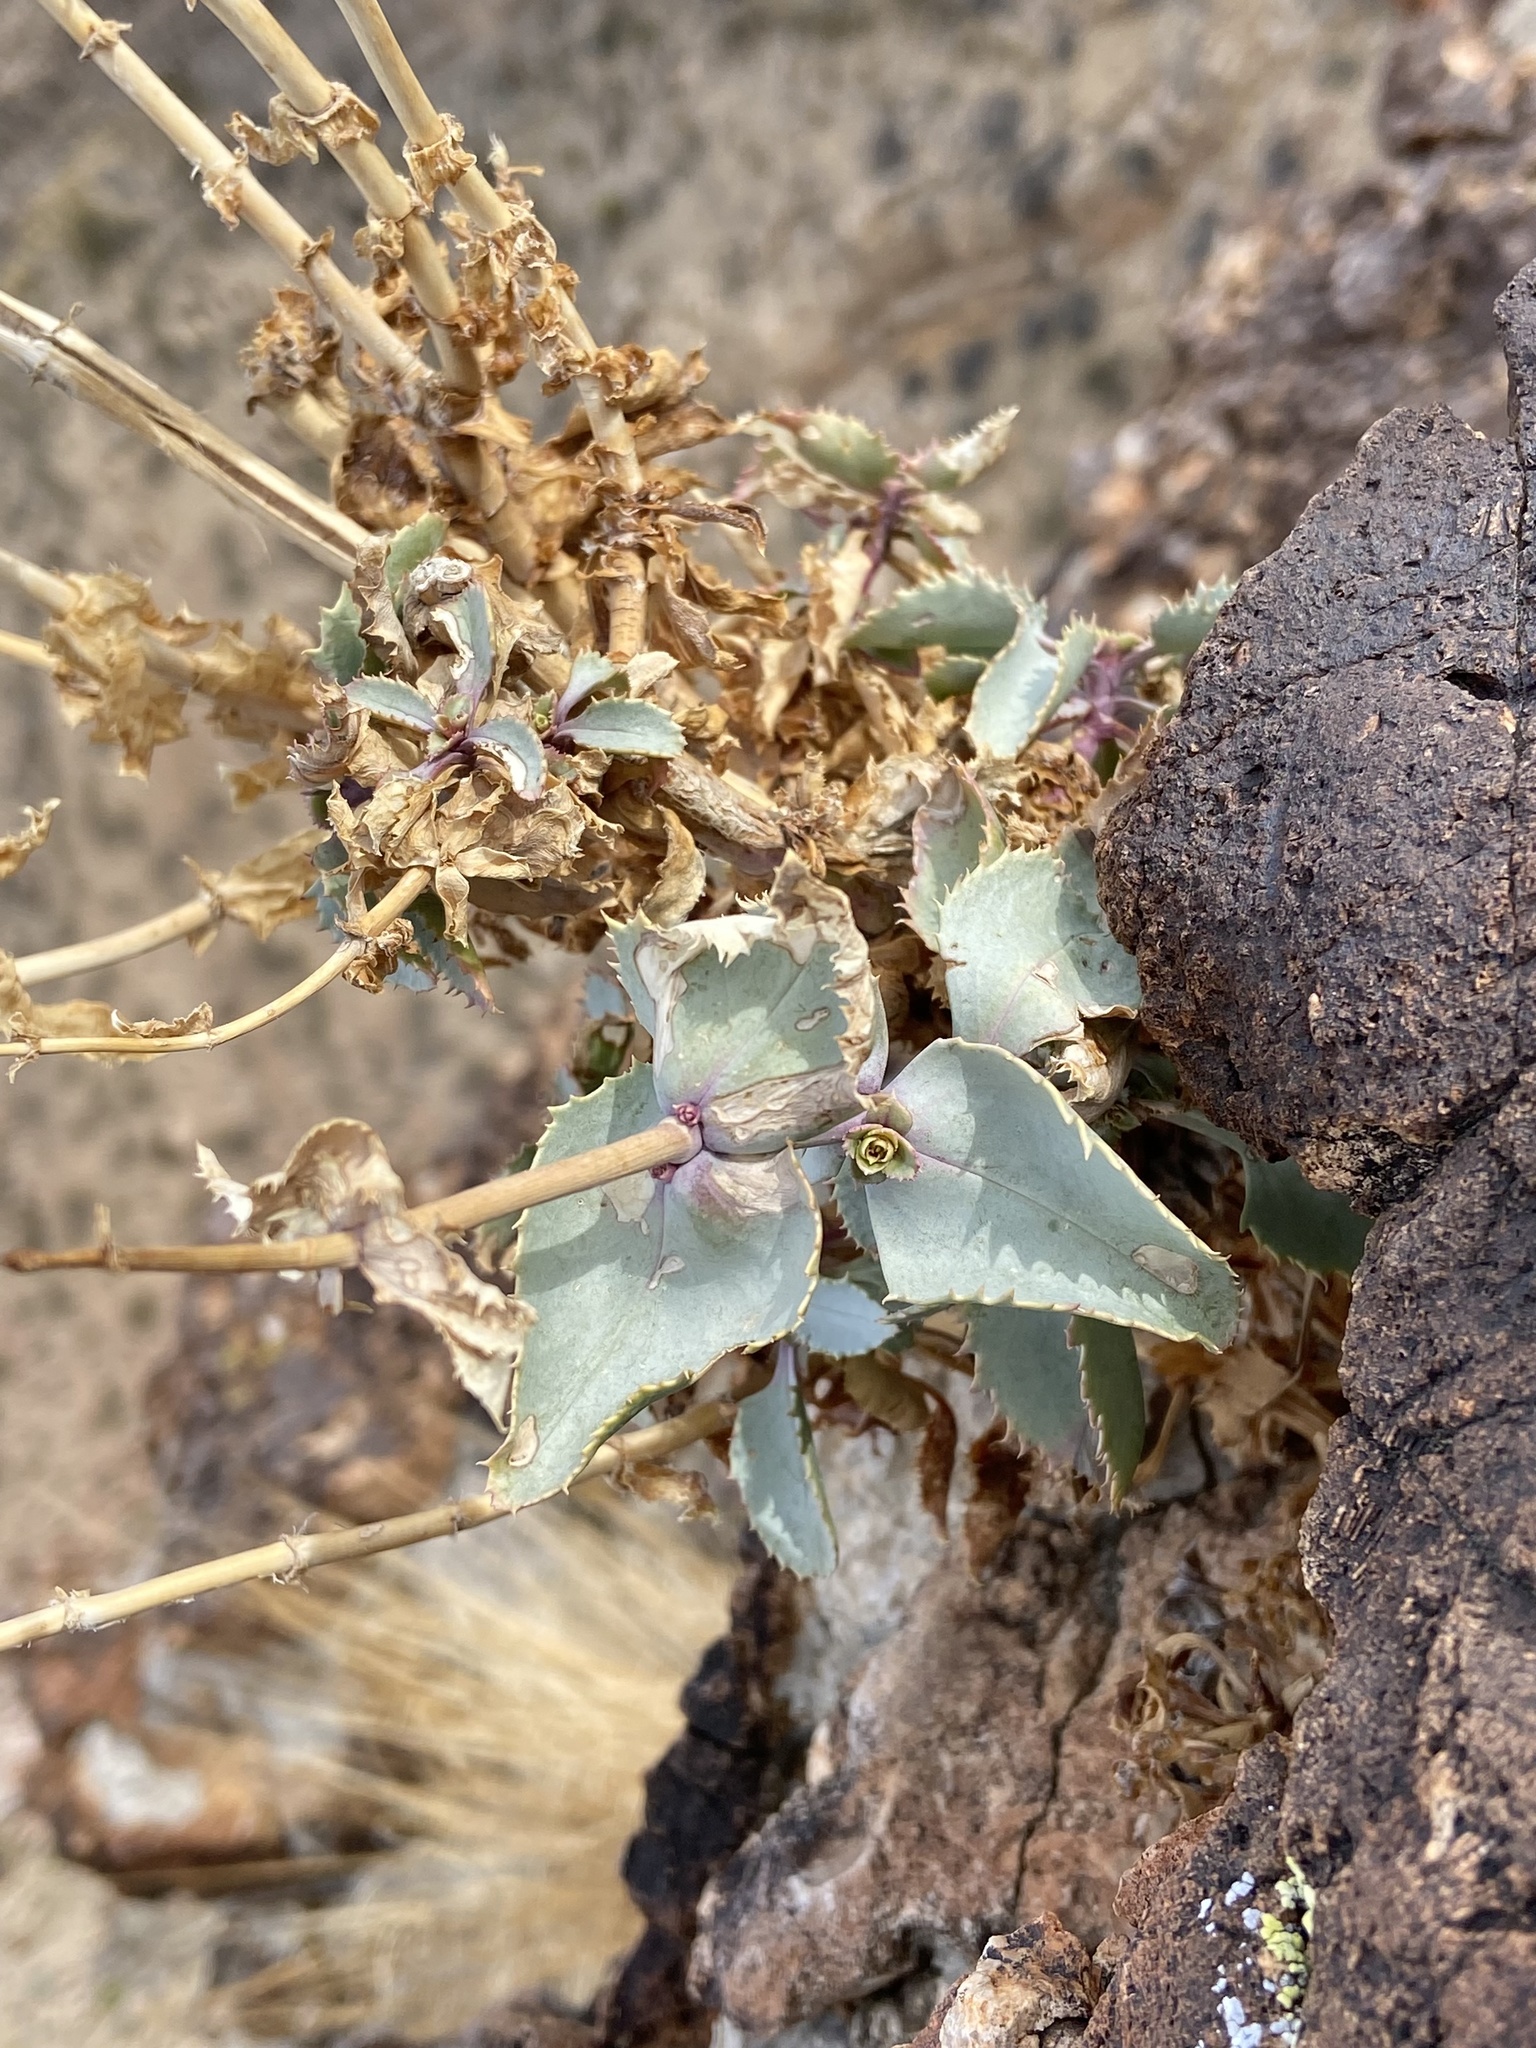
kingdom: Plantae
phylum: Tracheophyta
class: Magnoliopsida
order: Lamiales
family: Plantaginaceae
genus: Penstemon
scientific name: Penstemon palmeri
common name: Palmer penstemon
